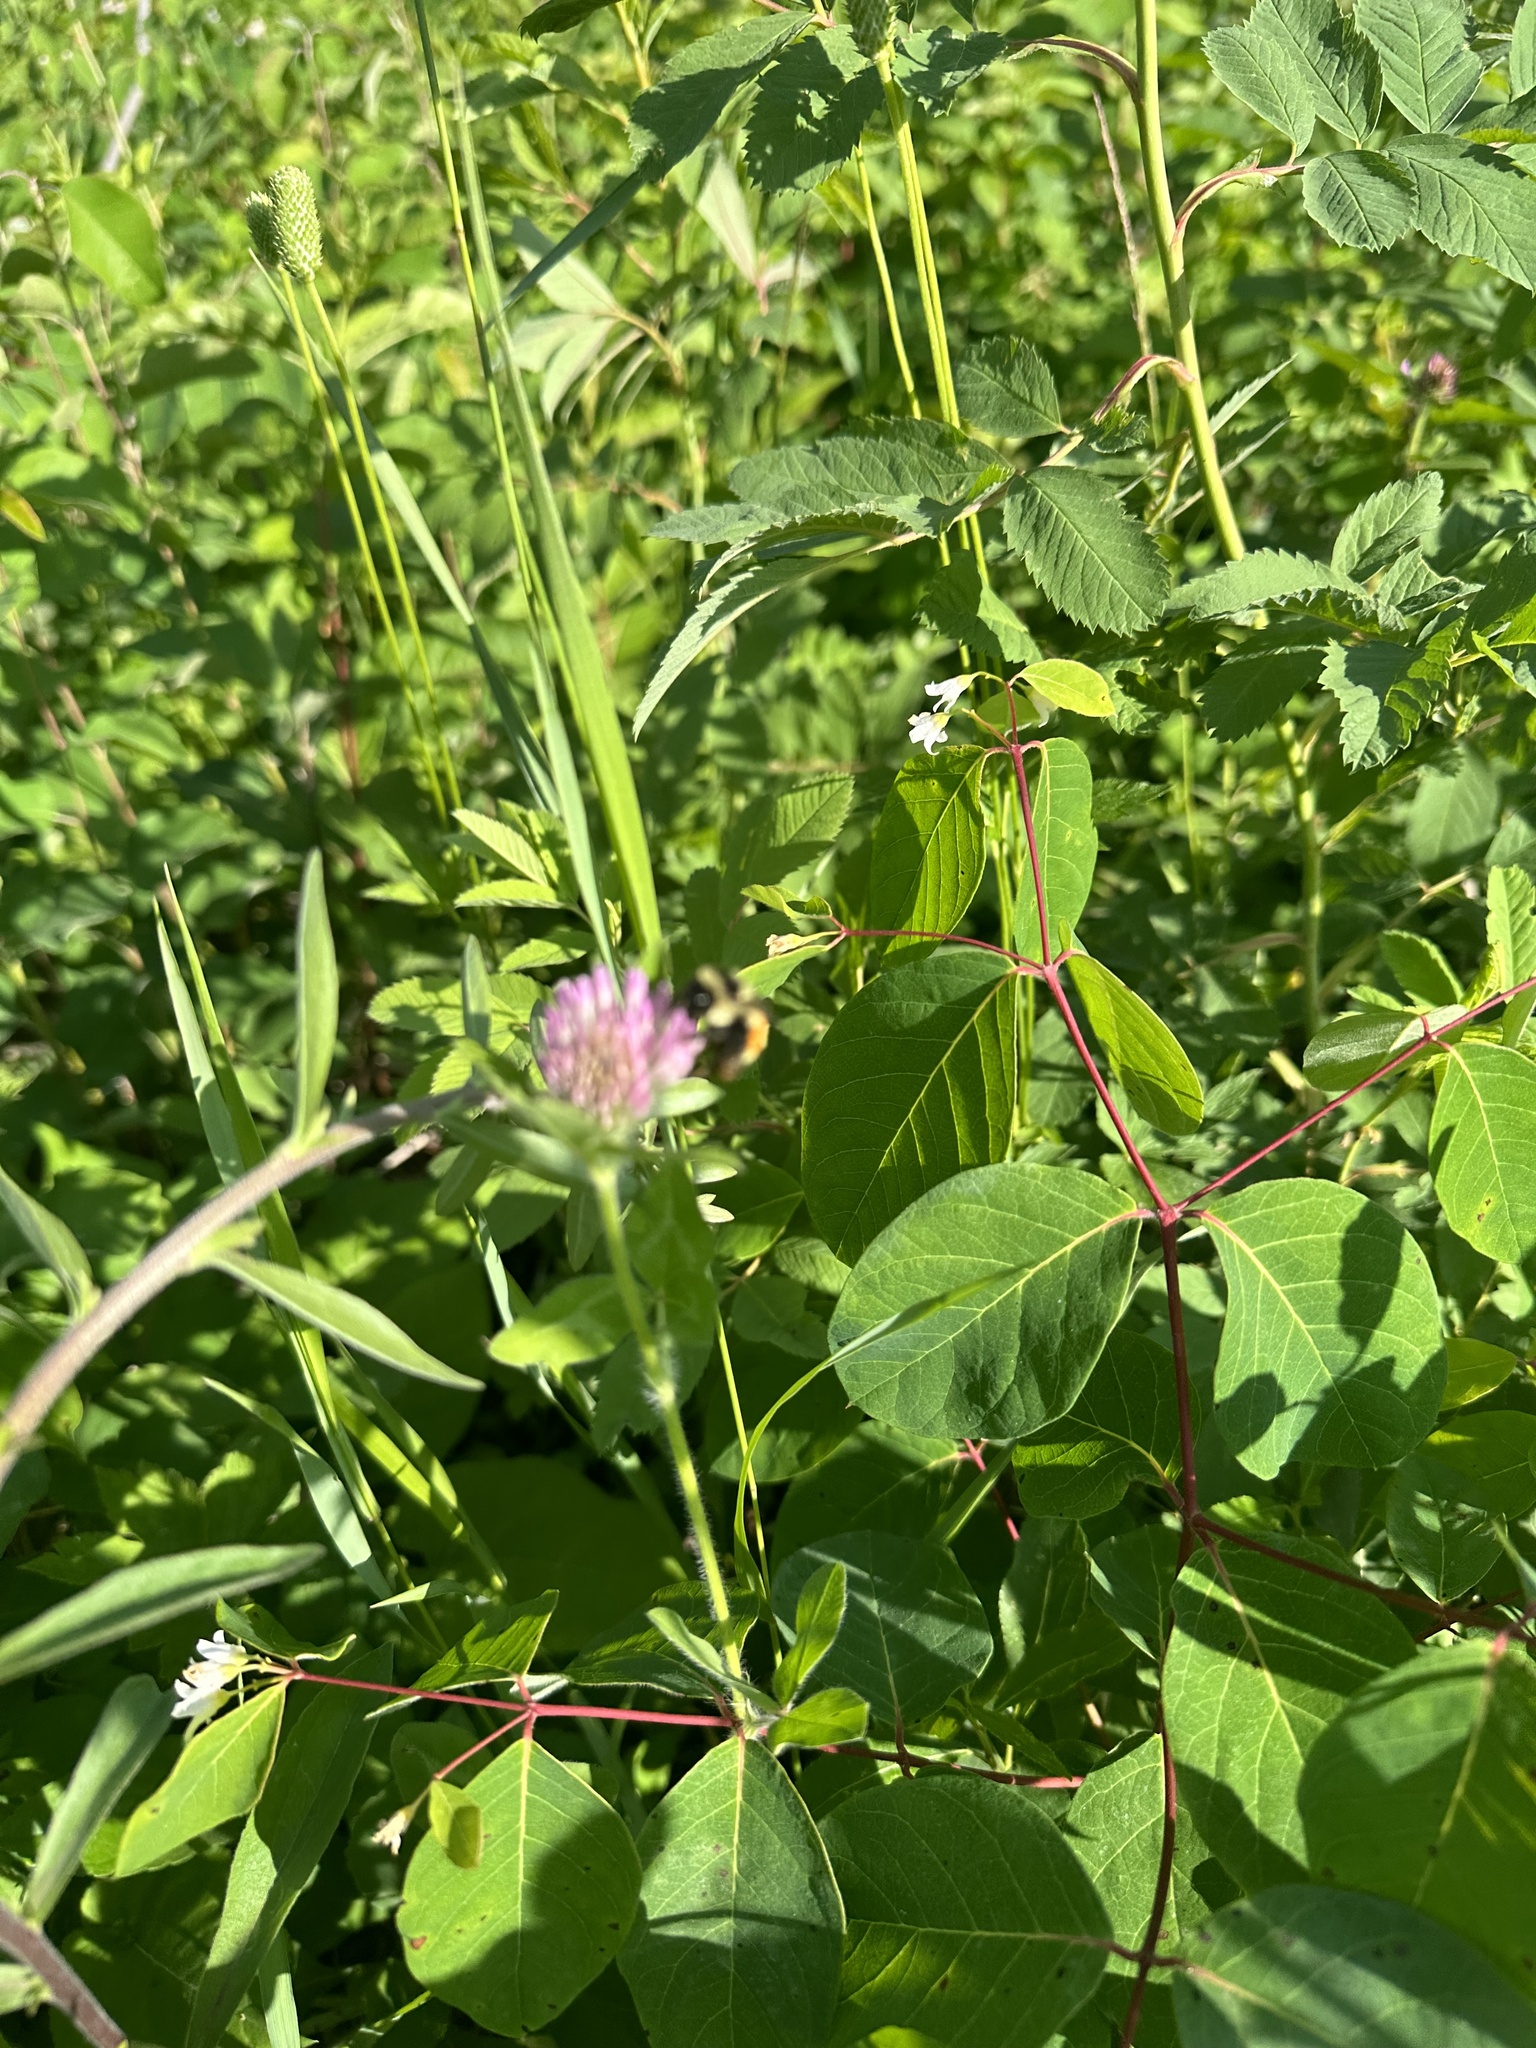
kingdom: Animalia
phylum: Arthropoda
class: Insecta
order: Hymenoptera
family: Apidae
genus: Bombus
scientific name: Bombus ternarius
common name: Tri-colored bumble bee
